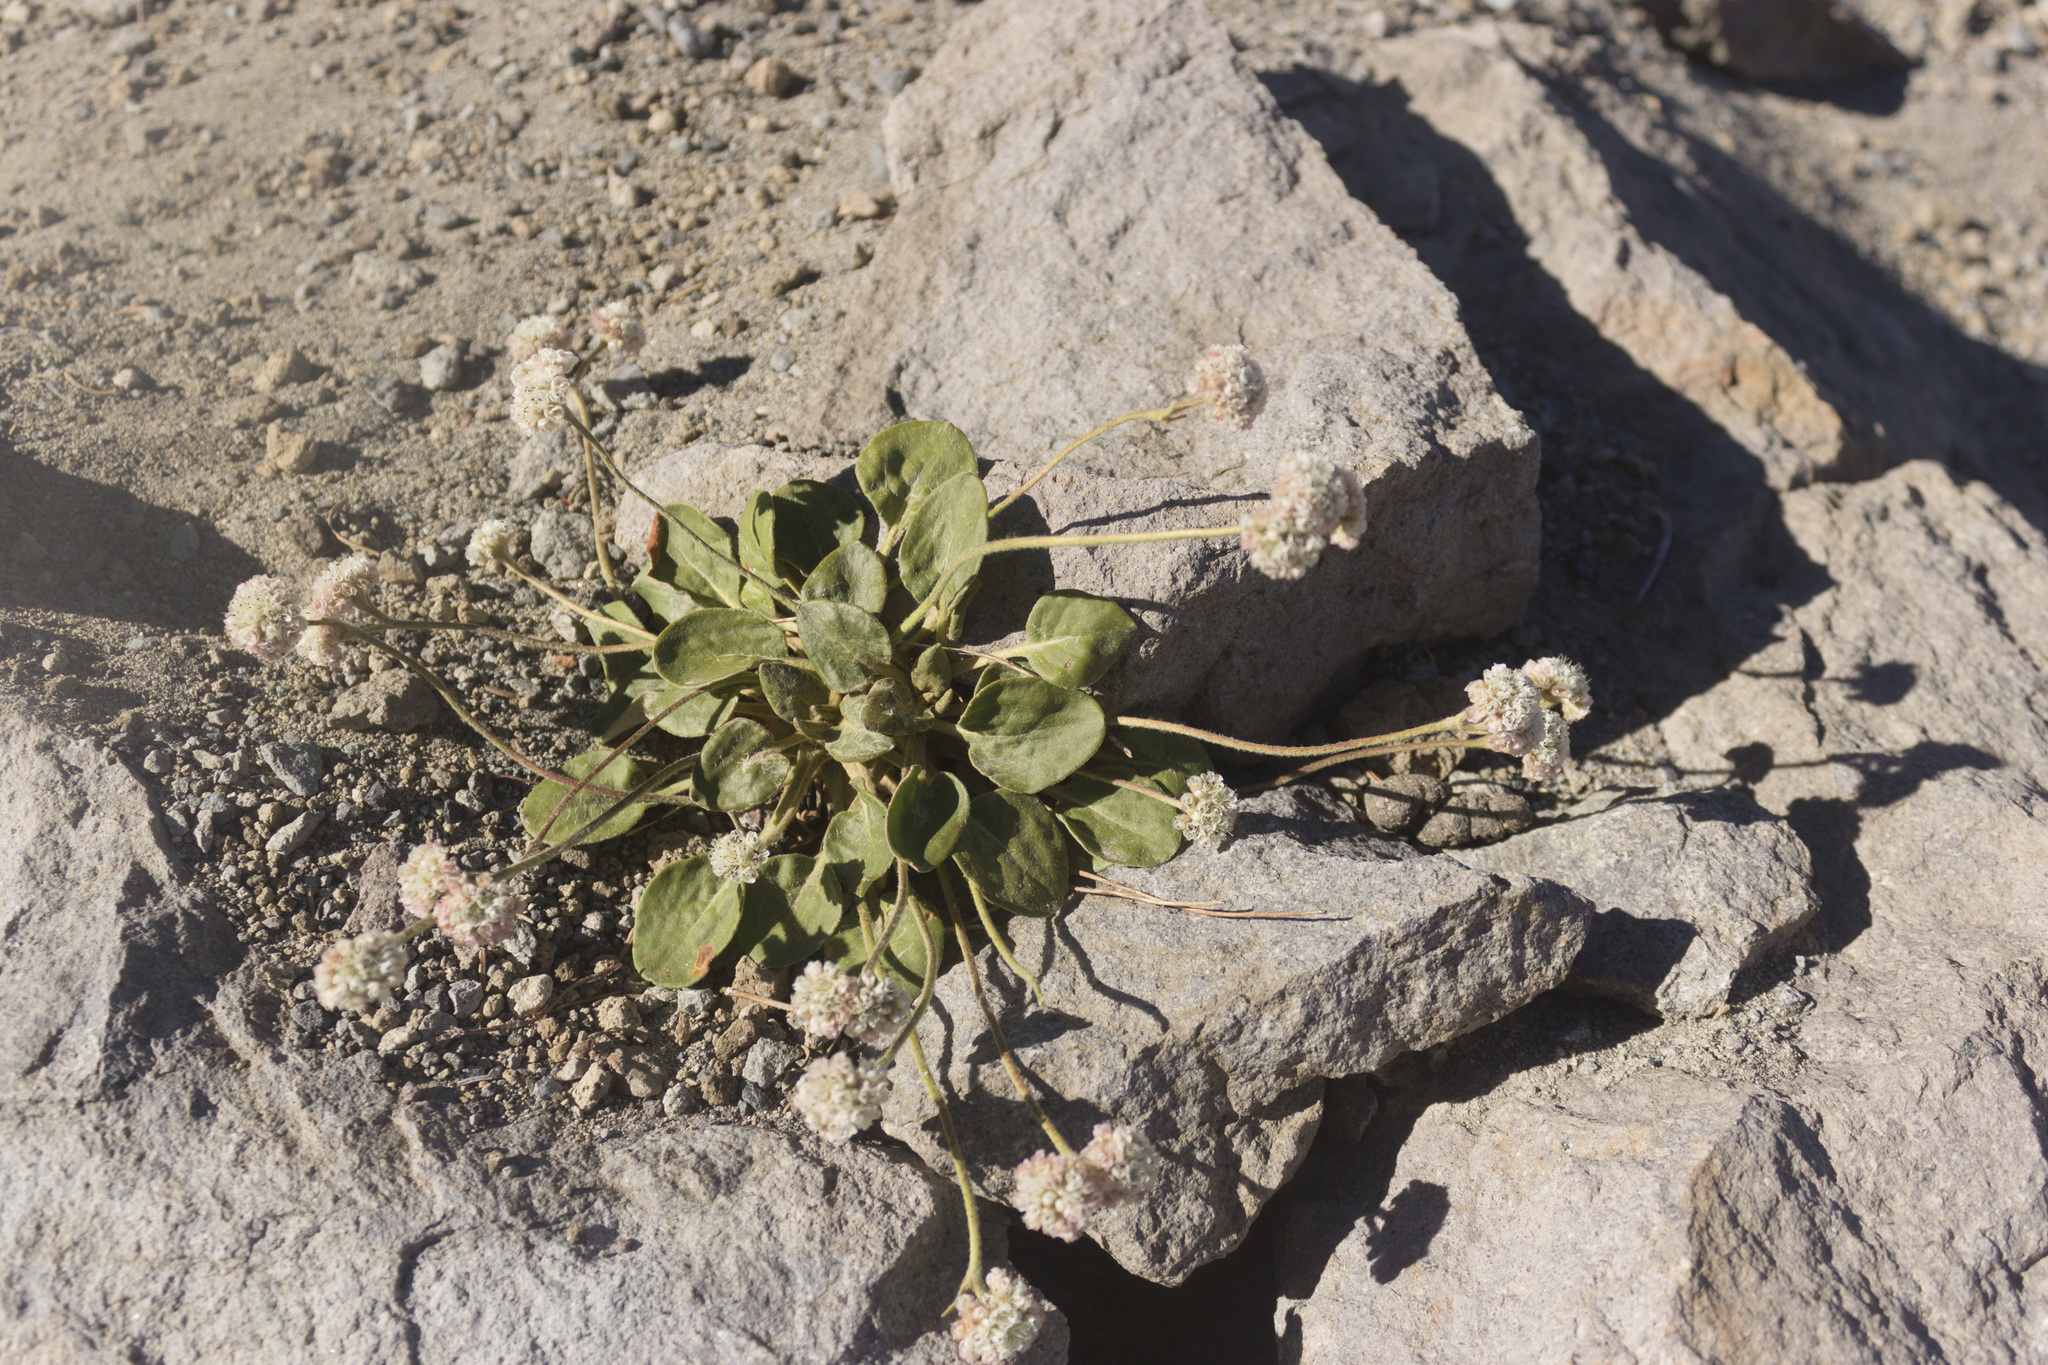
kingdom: Plantae
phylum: Tracheophyta
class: Magnoliopsida
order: Caryophyllales
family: Polygonaceae
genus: Eriogonum
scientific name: Eriogonum pyrolifolium
